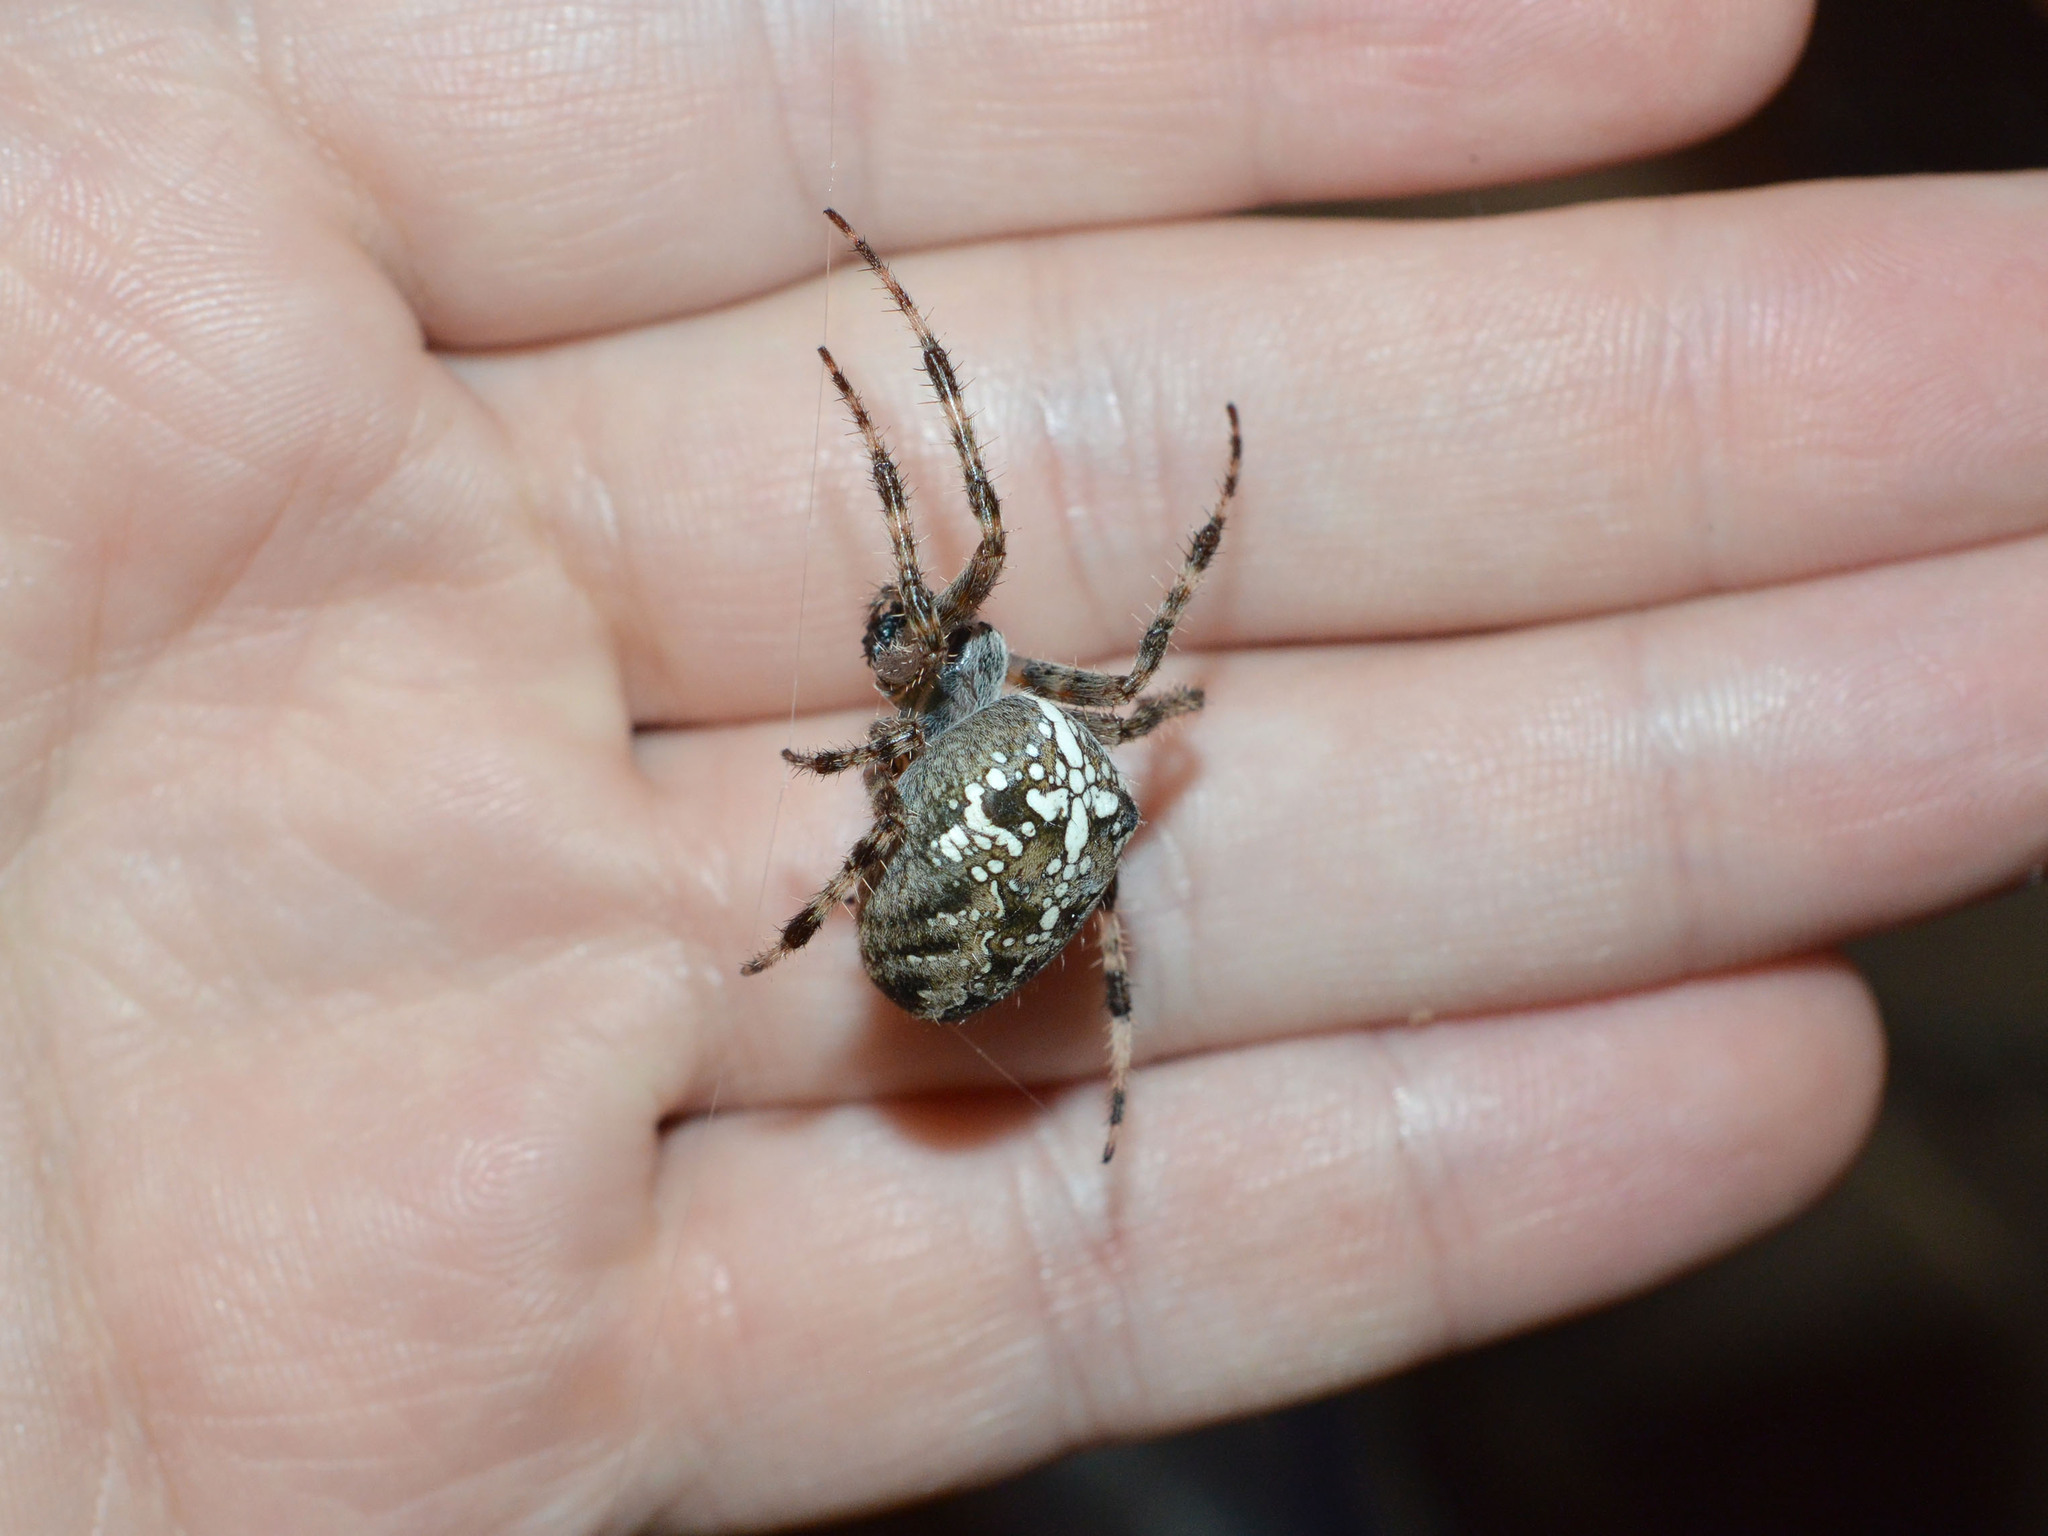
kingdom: Animalia
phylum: Arthropoda
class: Arachnida
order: Araneae
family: Araneidae
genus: Araneus
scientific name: Araneus diadematus
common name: Cross orbweaver
